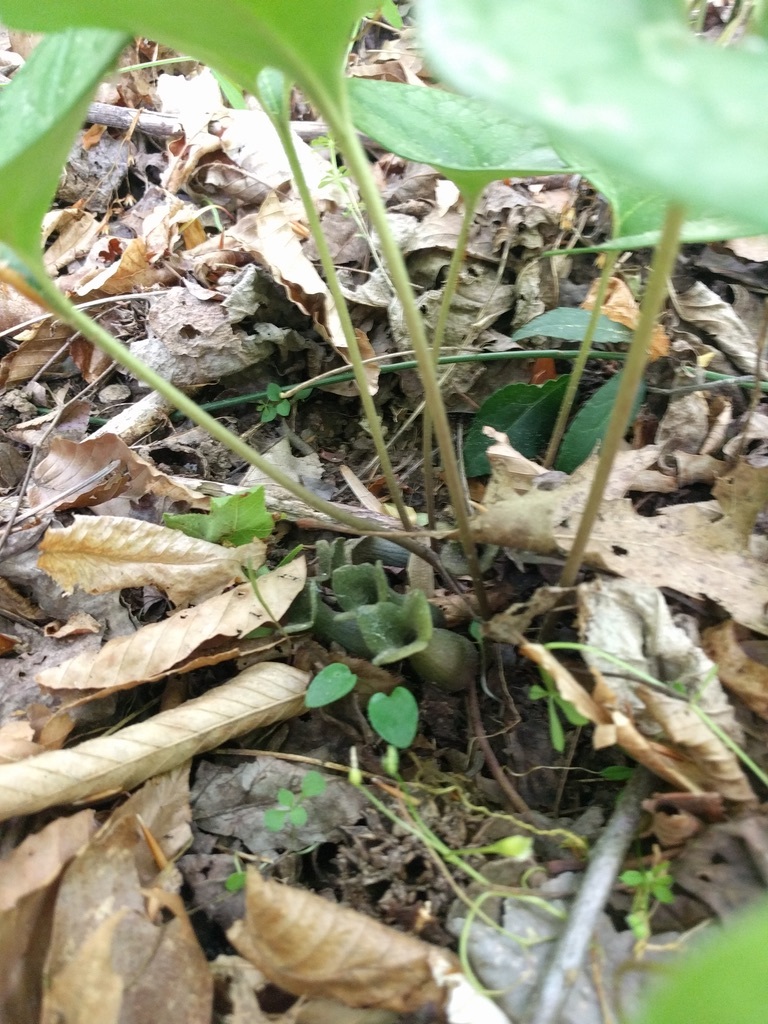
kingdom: Plantae
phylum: Tracheophyta
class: Magnoliopsida
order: Piperales
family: Aristolochiaceae
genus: Hexastylis
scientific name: Hexastylis arifolia
